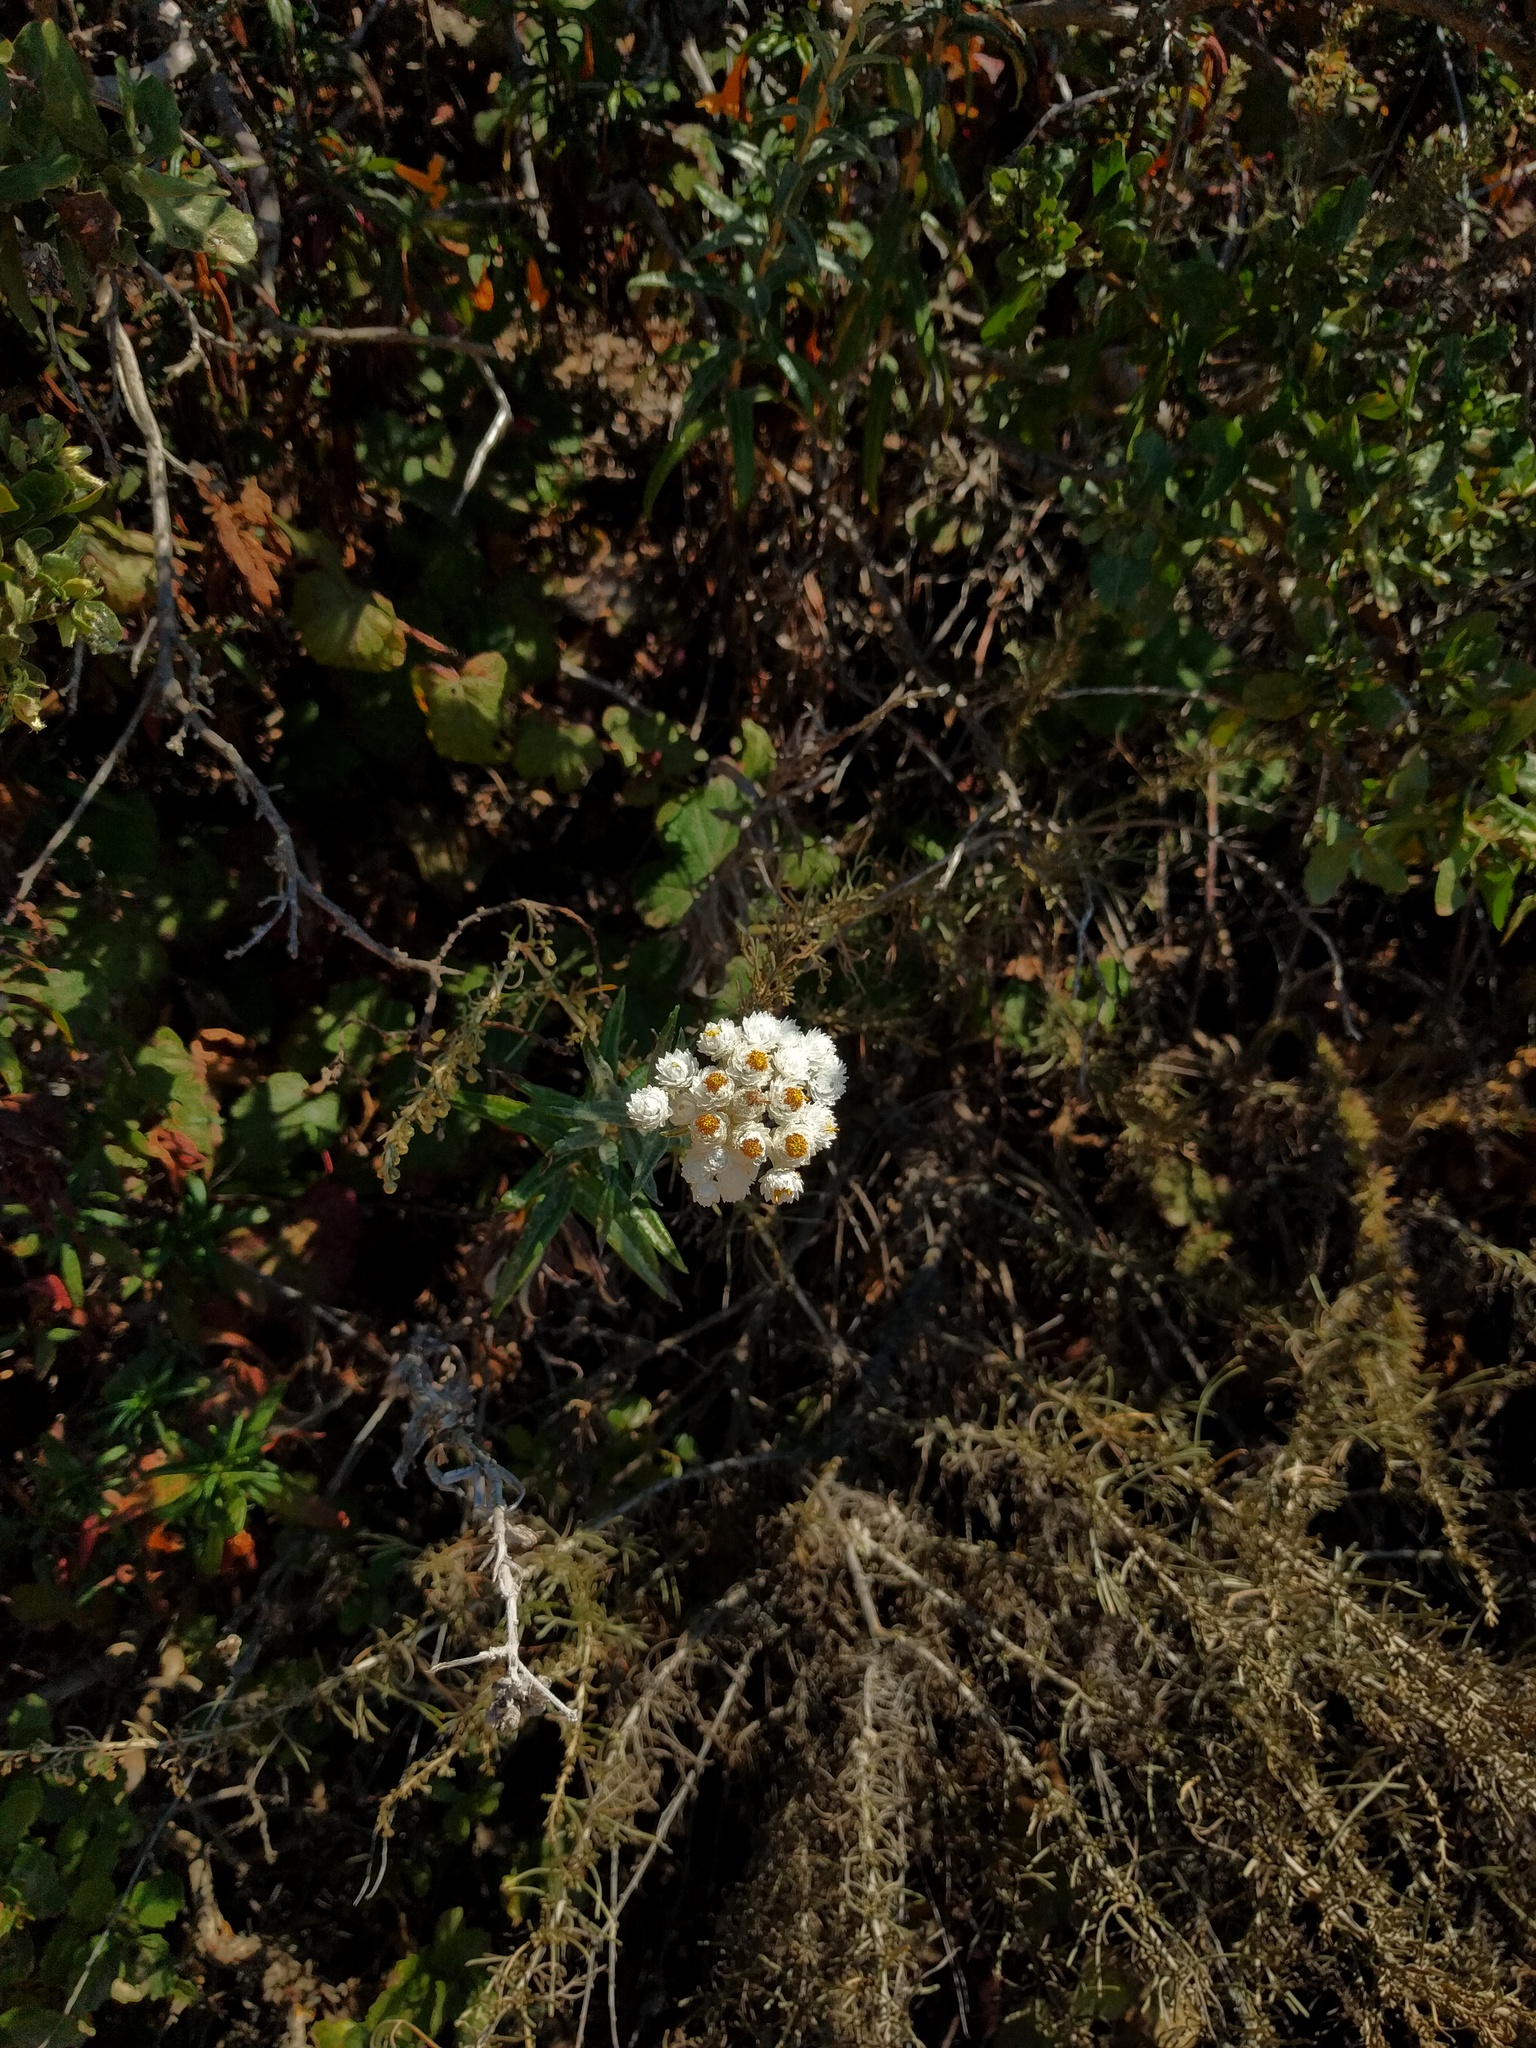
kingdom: Plantae
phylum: Tracheophyta
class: Magnoliopsida
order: Asterales
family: Asteraceae
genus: Anaphalis
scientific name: Anaphalis margaritacea
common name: Pearly everlasting
